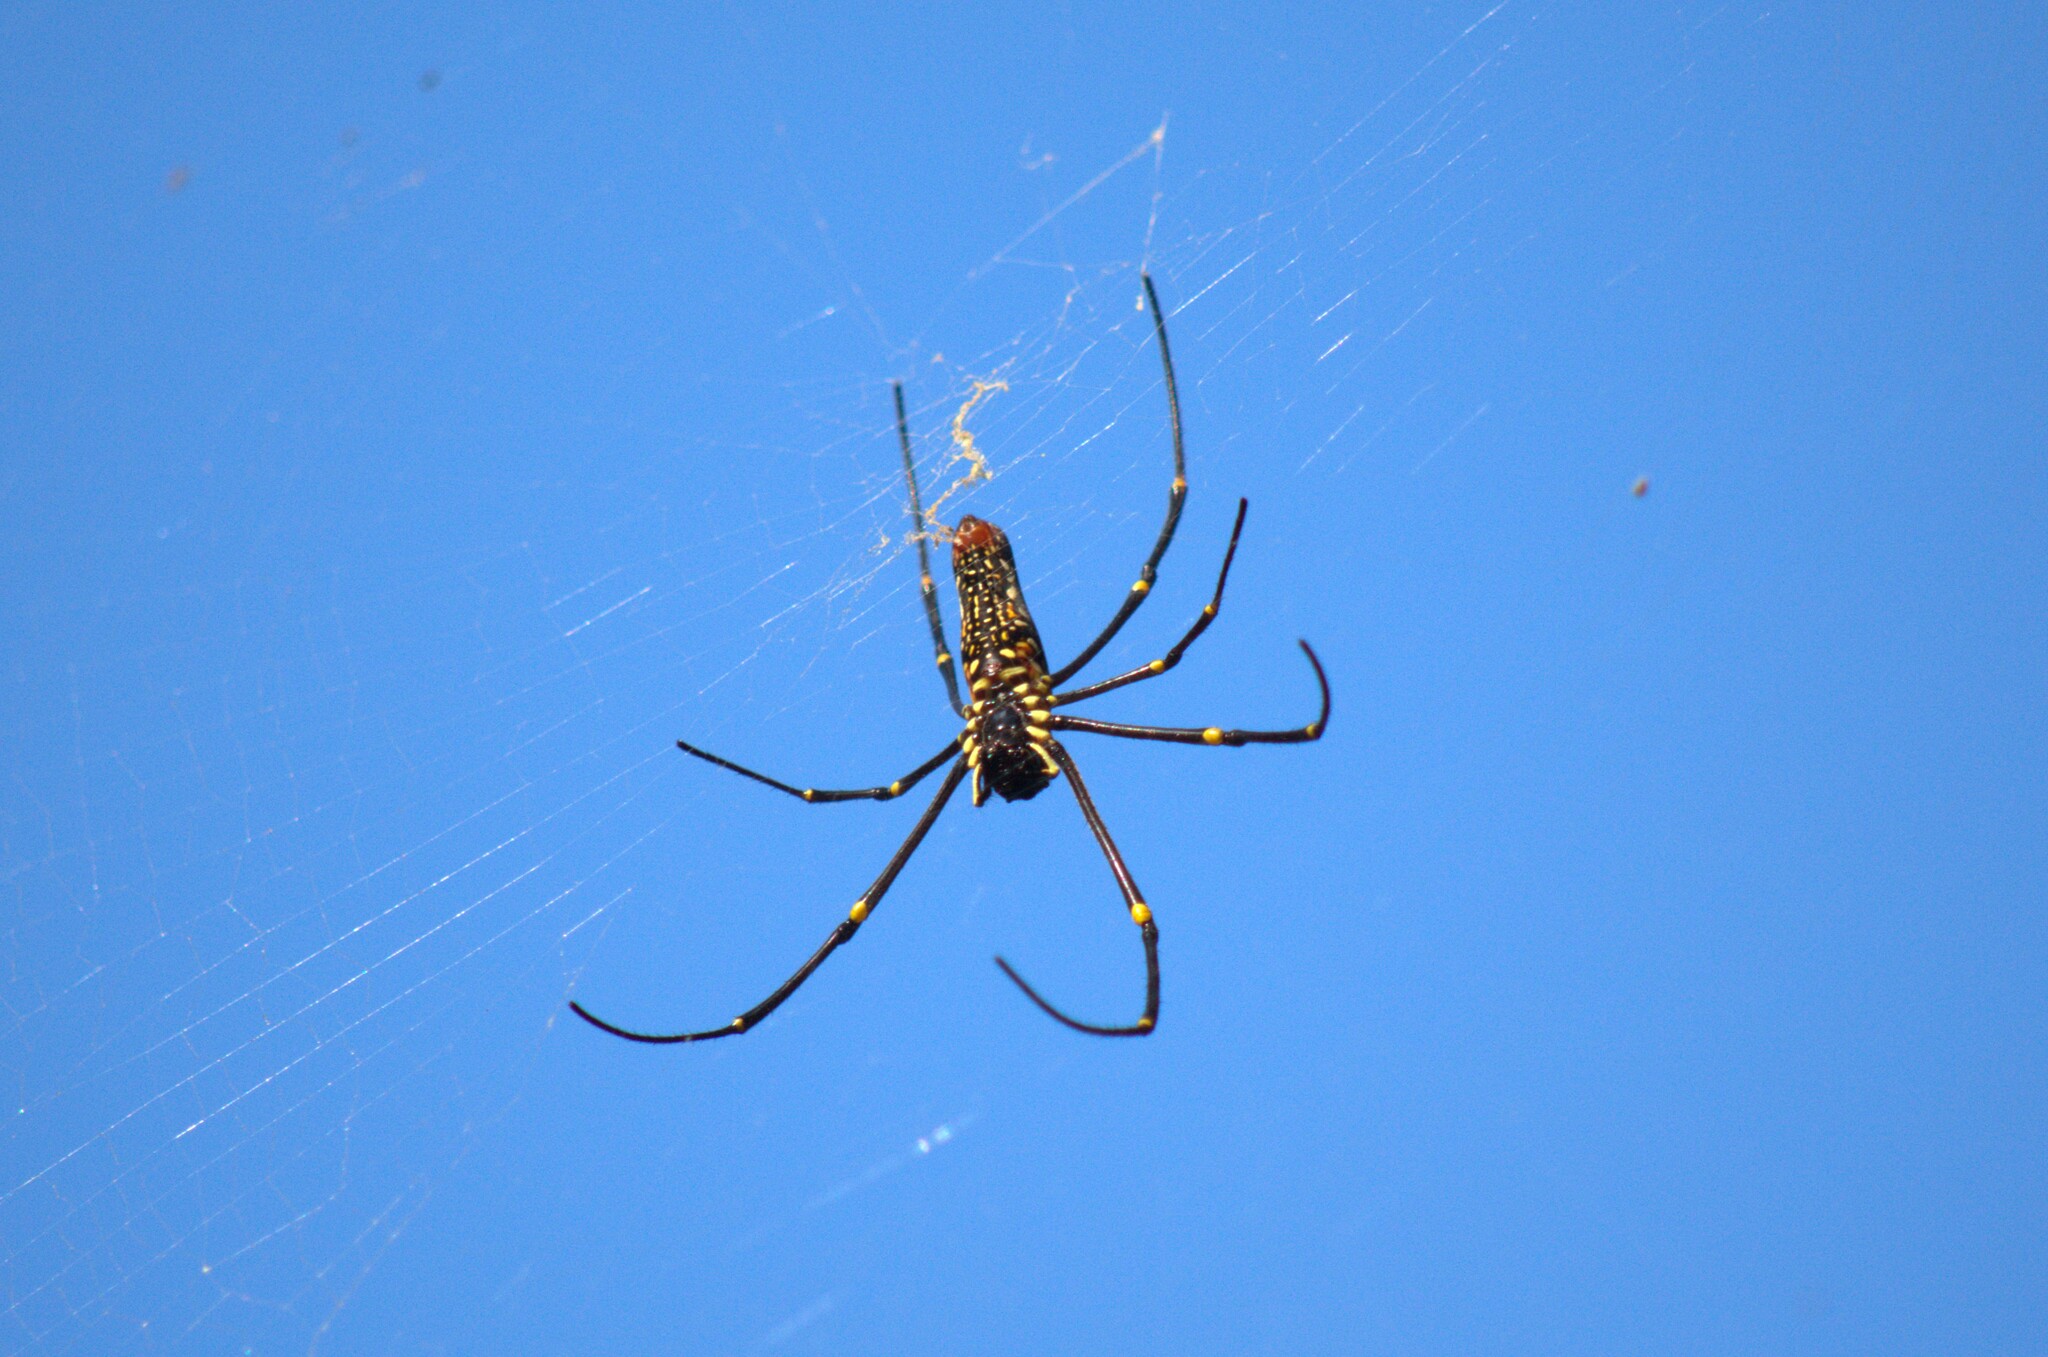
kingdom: Animalia
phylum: Arthropoda
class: Arachnida
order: Araneae
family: Araneidae
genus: Nephila
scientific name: Nephila pilipes
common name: Giant golden orb weaver
